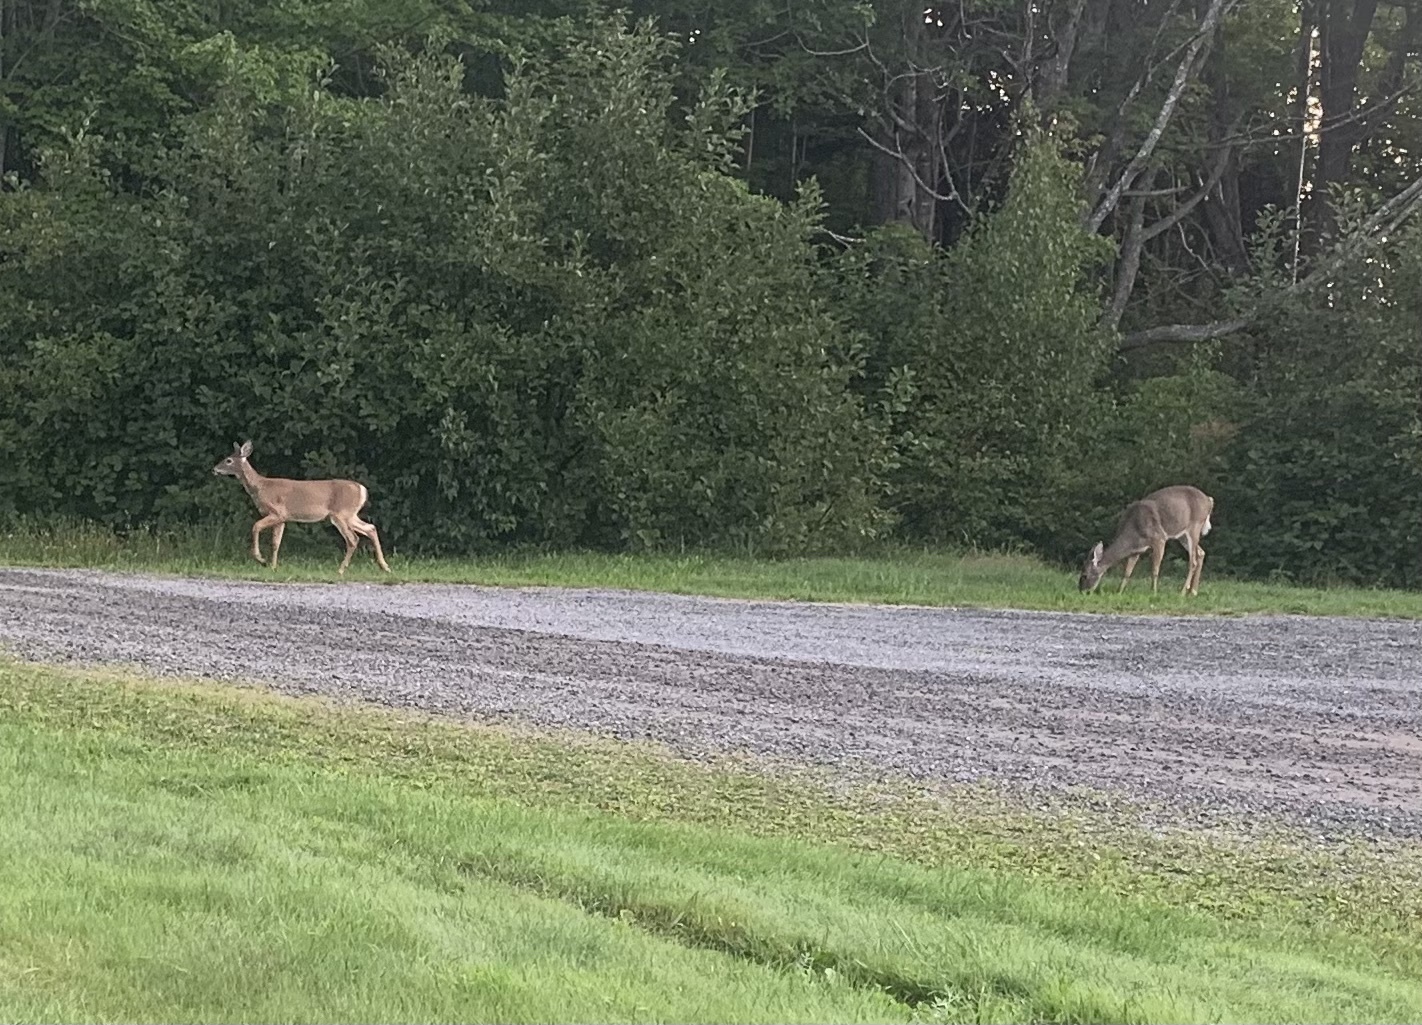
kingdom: Animalia
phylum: Chordata
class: Mammalia
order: Artiodactyla
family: Cervidae
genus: Odocoileus
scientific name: Odocoileus virginianus
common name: White-tailed deer
